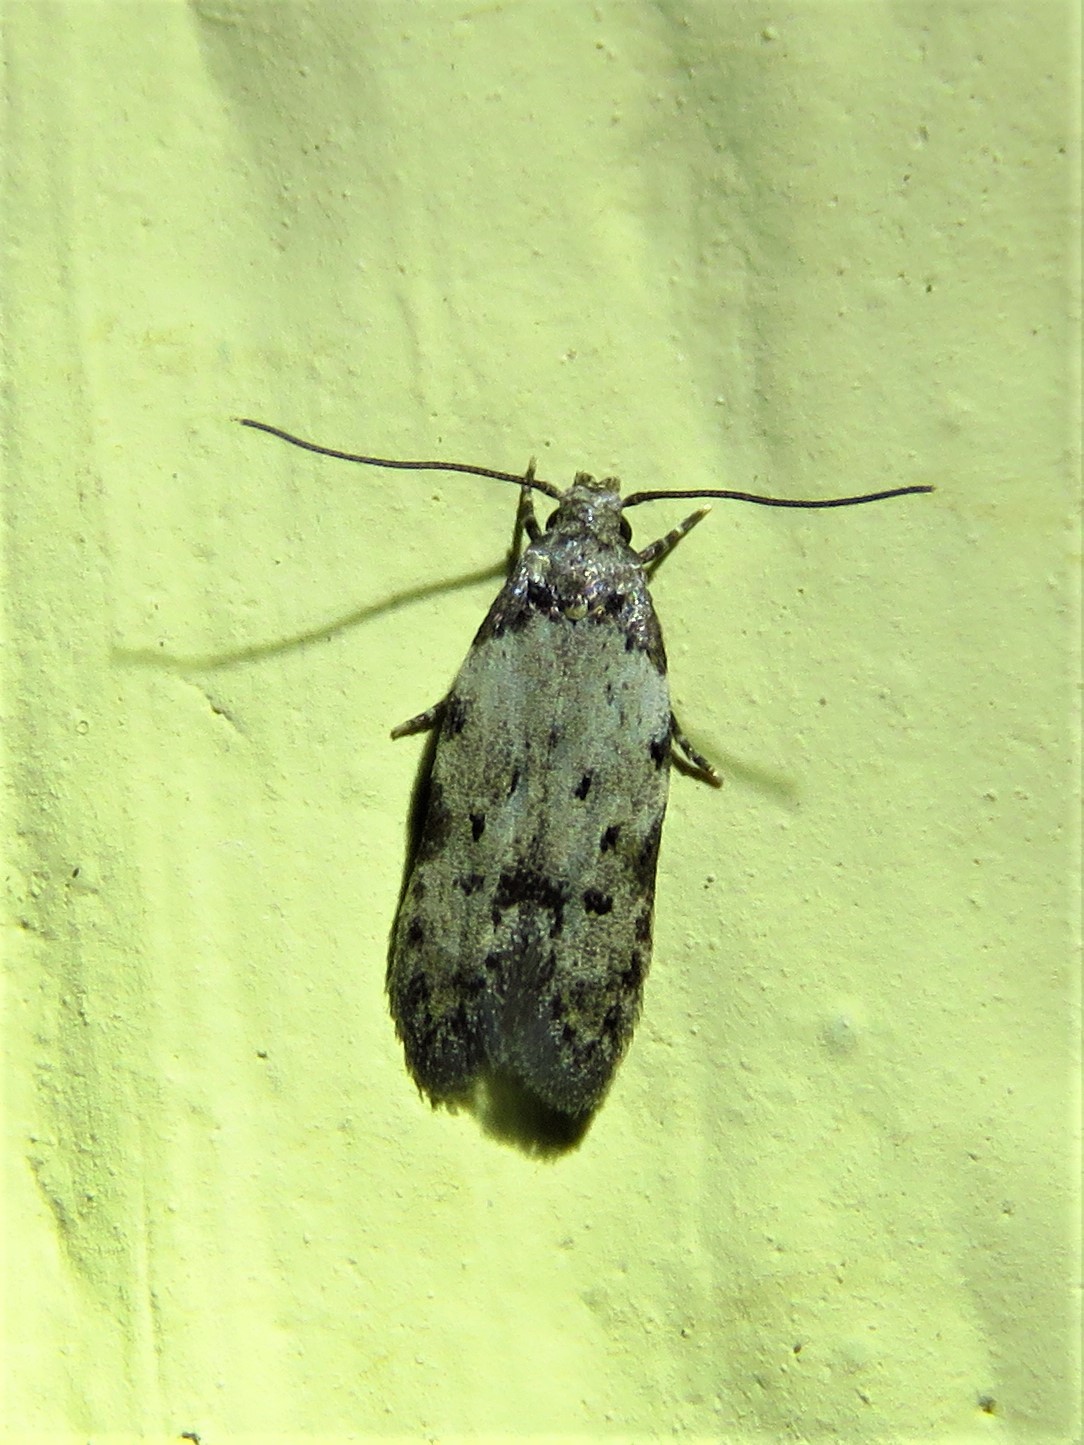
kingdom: Animalia
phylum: Arthropoda
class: Insecta
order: Lepidoptera
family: Autostichidae
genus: Taygete
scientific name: Taygete attributella
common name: Triangle-marked twirler moth
